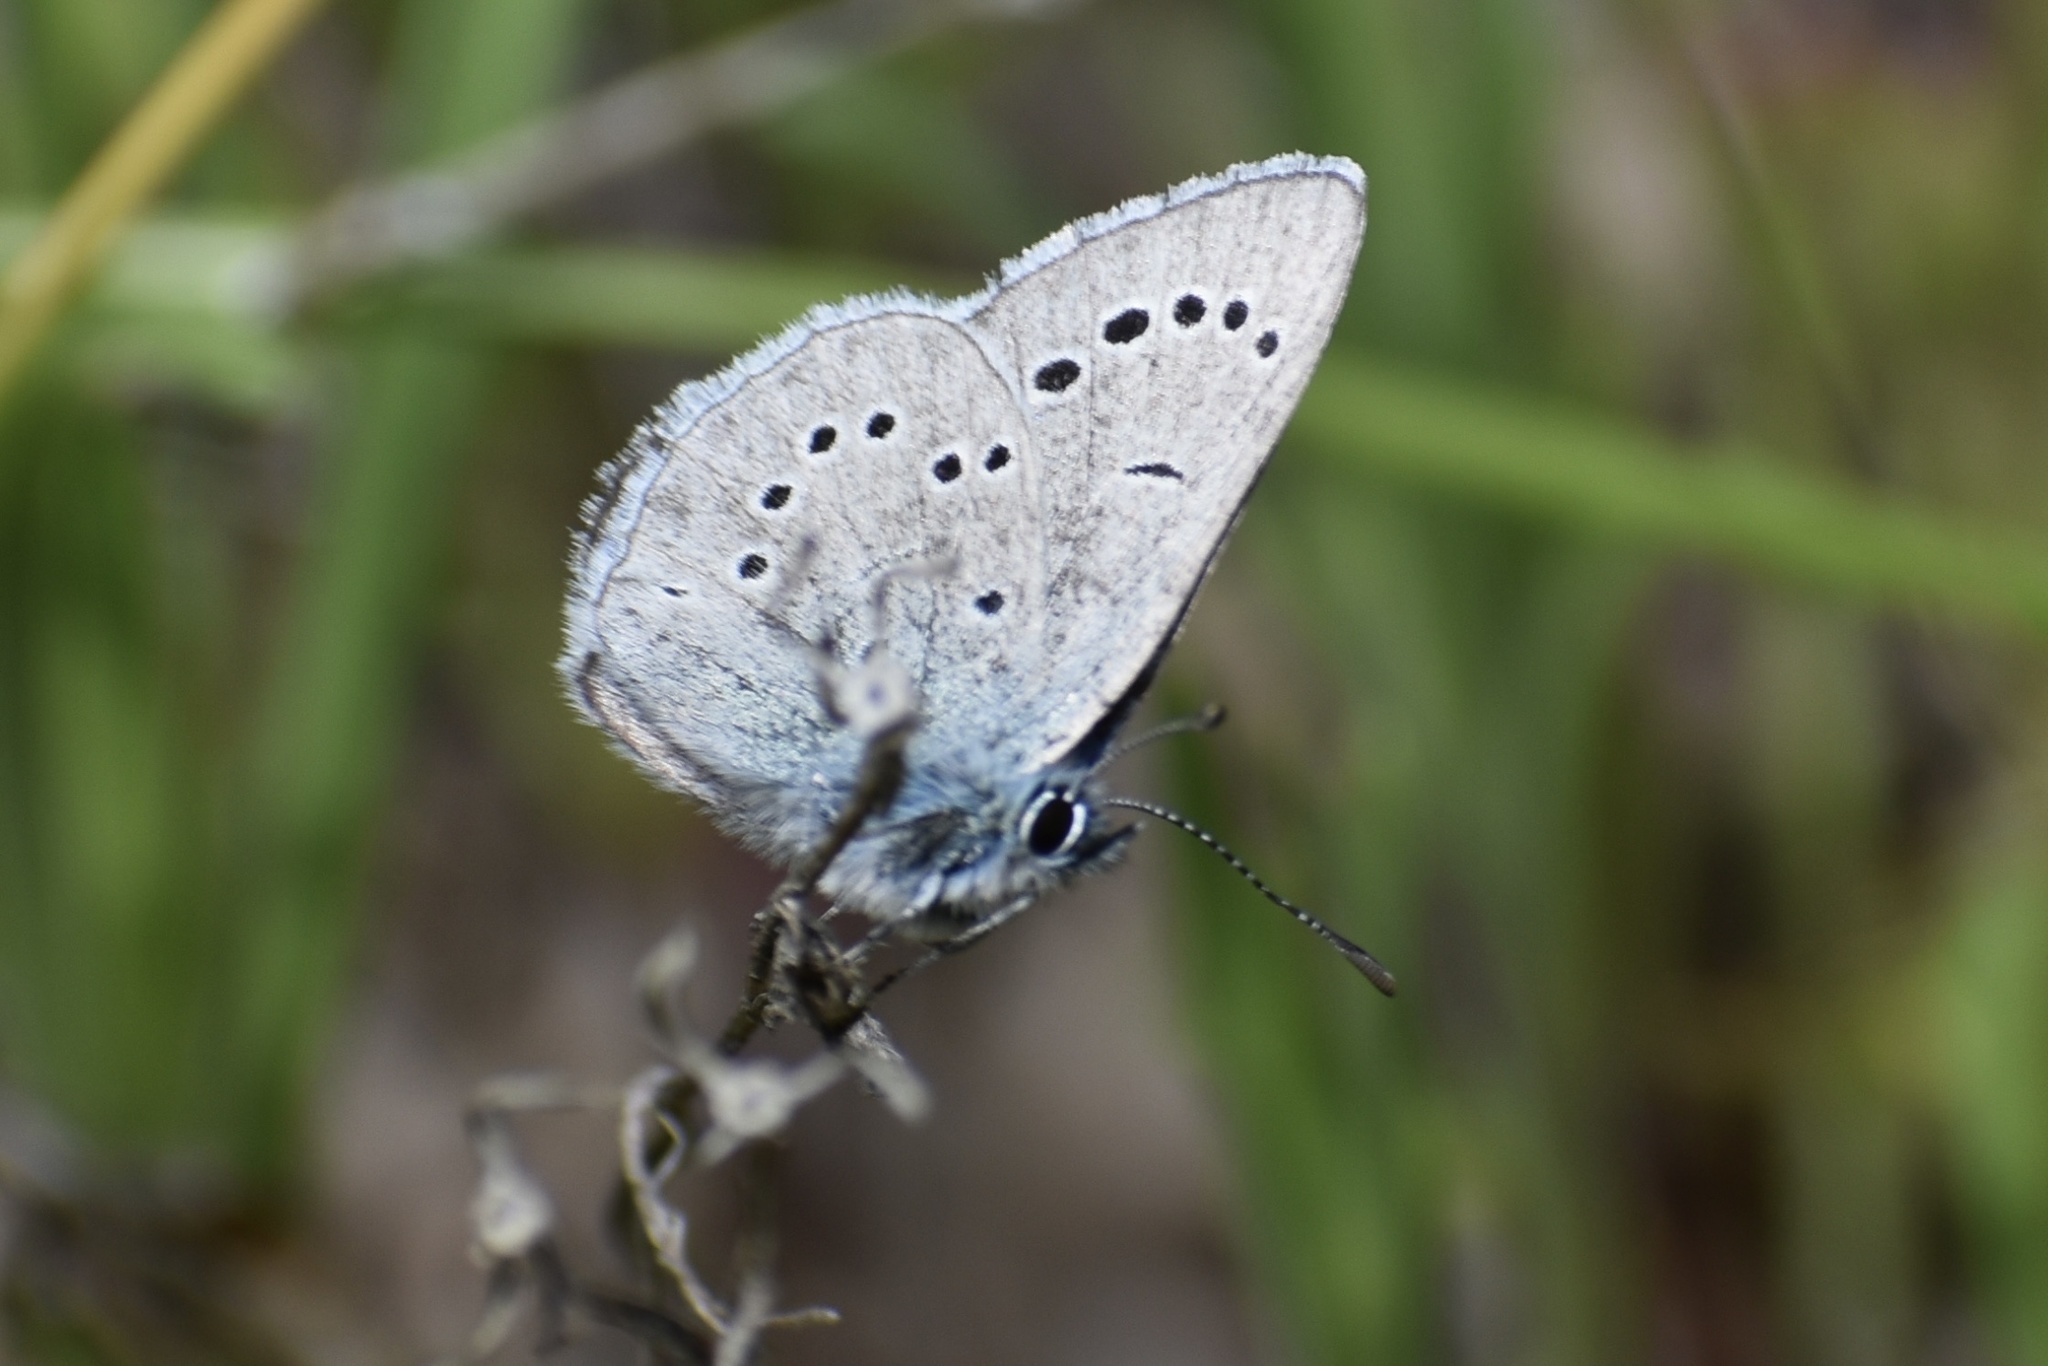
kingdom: Animalia
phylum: Arthropoda
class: Insecta
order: Lepidoptera
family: Lycaenidae
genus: Glaucopsyche
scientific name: Glaucopsyche lygdamus
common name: Silvery blue
